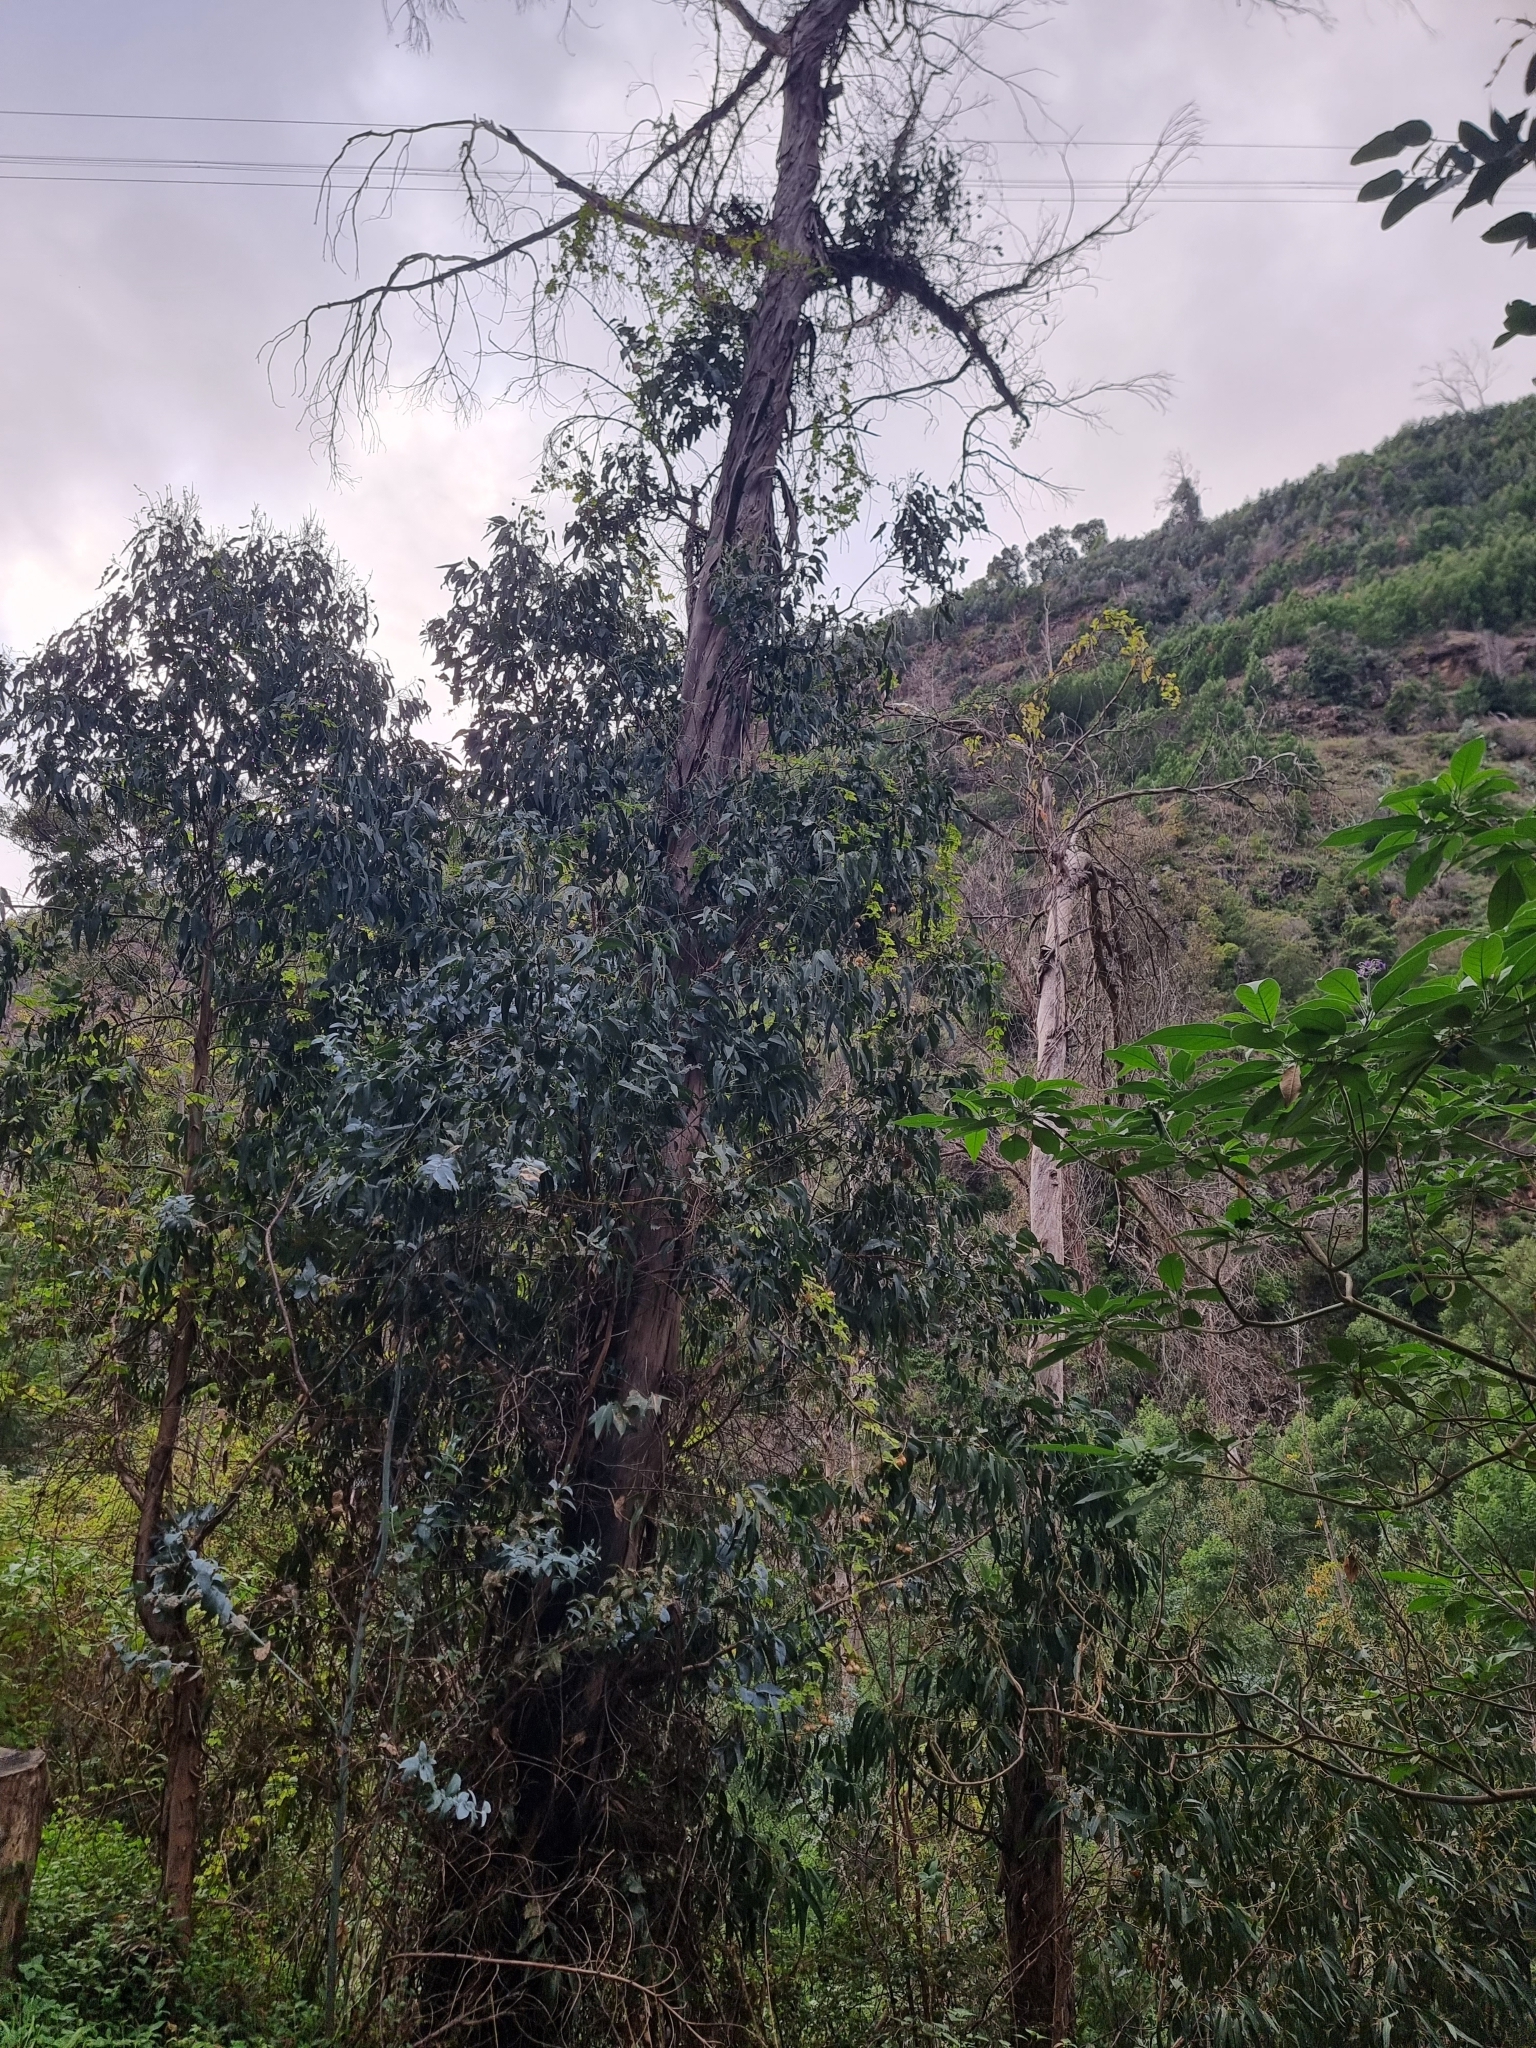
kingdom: Plantae
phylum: Tracheophyta
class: Magnoliopsida
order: Myrtales
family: Myrtaceae
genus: Eucalyptus
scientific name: Eucalyptus globulus
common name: Southern blue-gum
